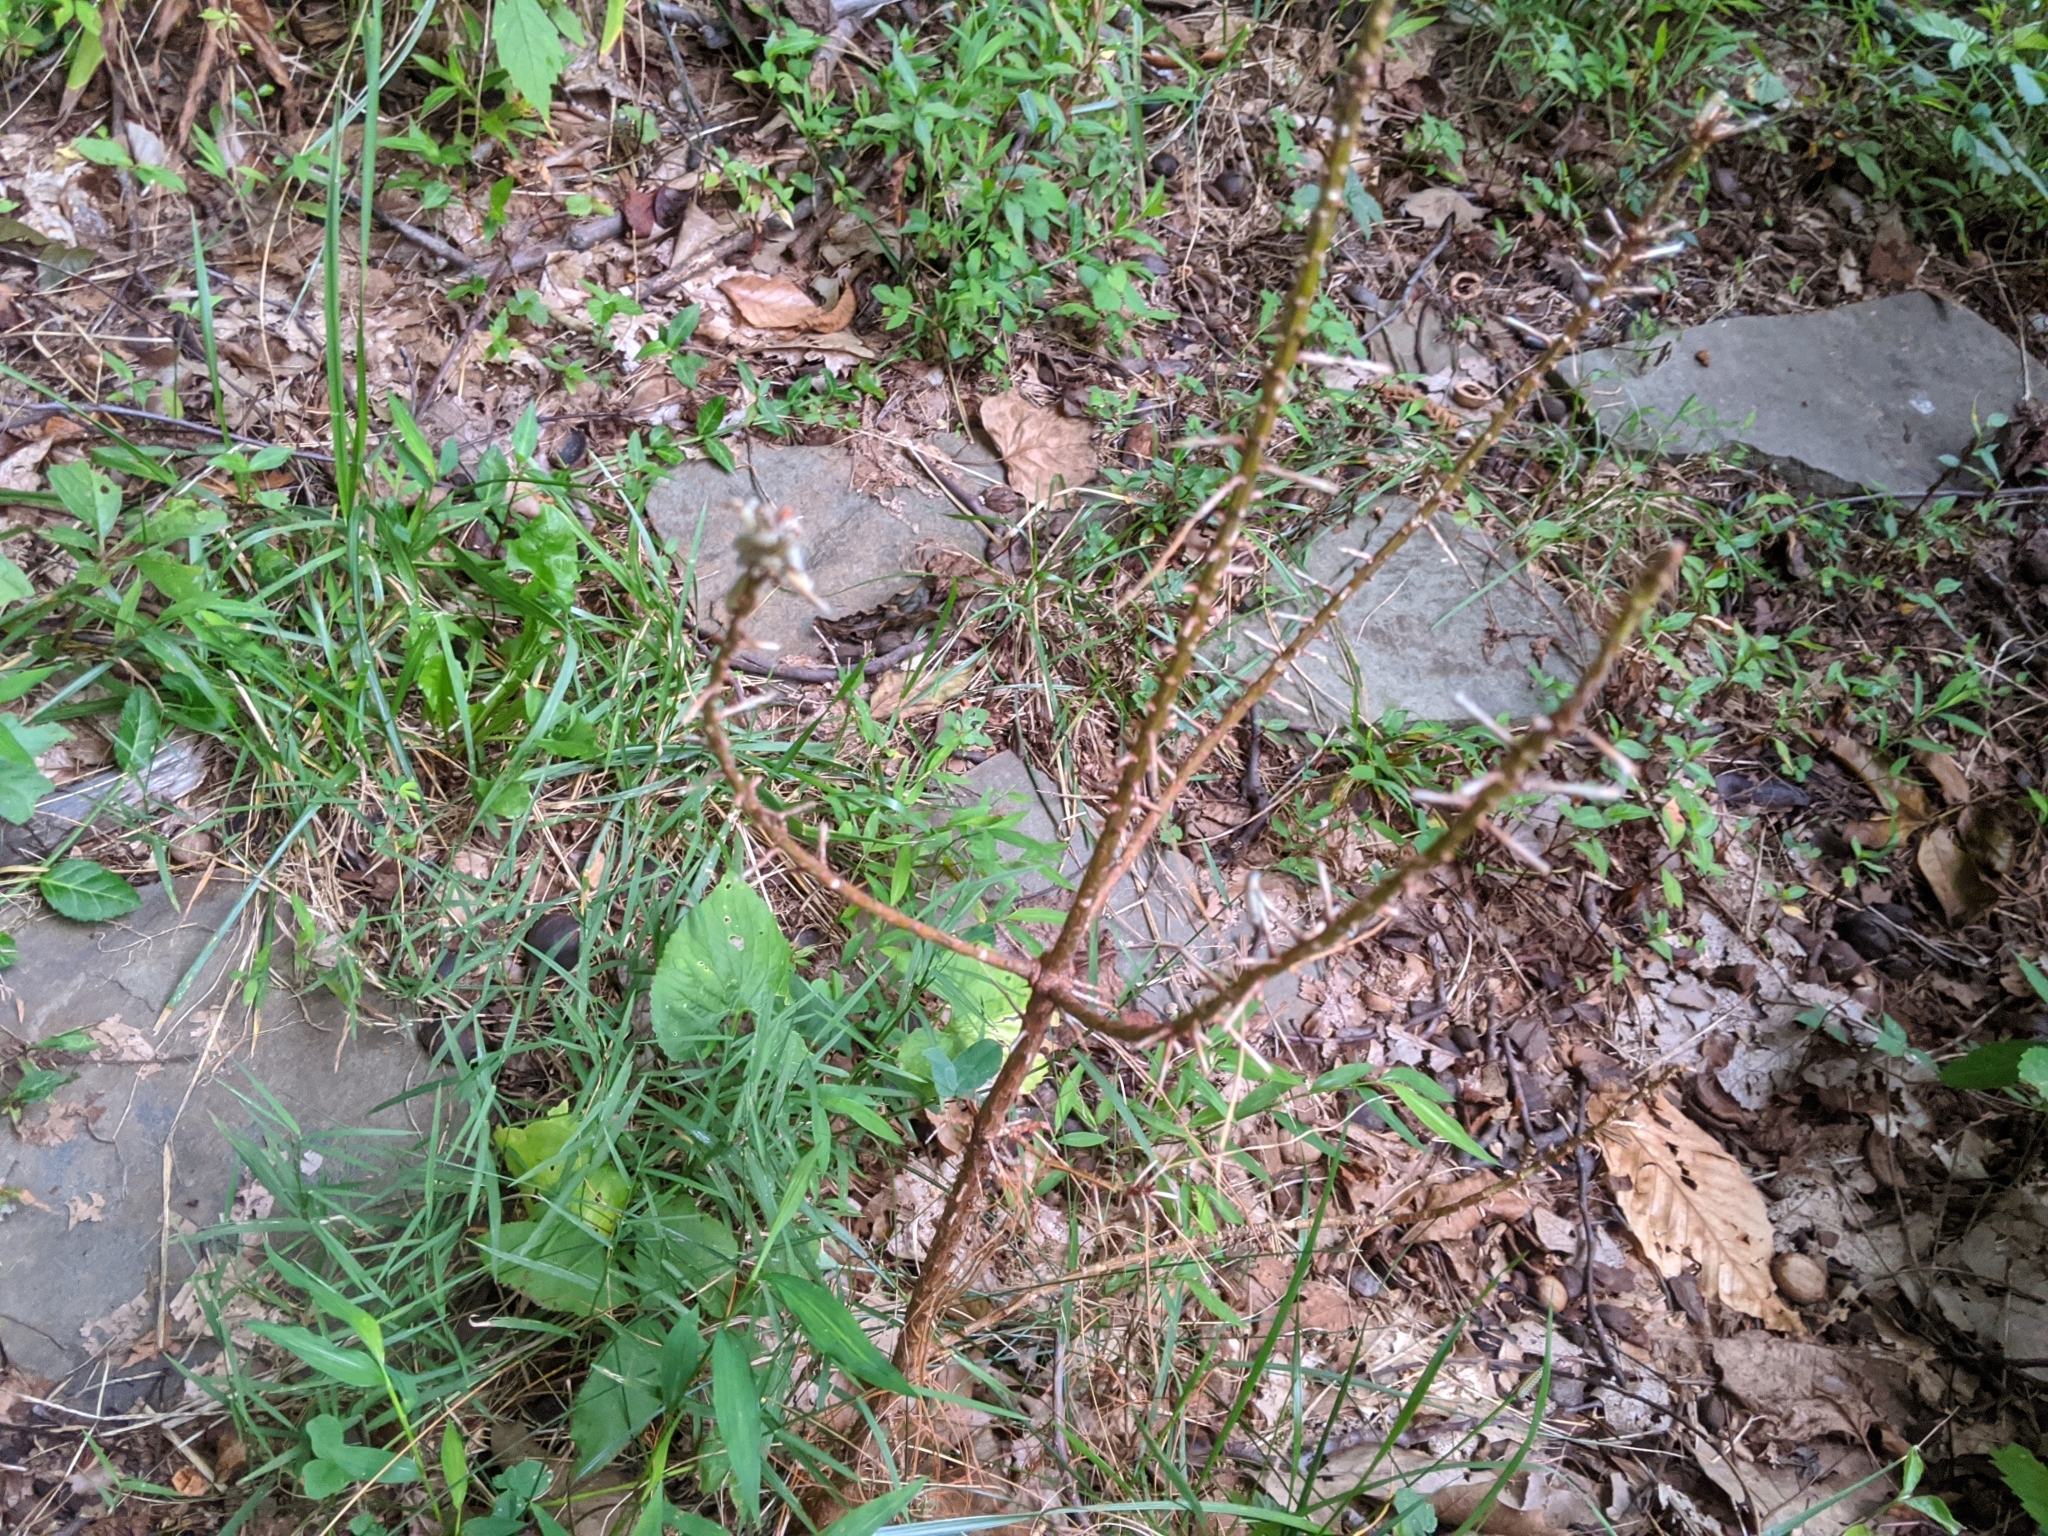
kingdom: Animalia
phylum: Arthropoda
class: Insecta
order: Hymenoptera
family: Diprionidae
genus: Neodiprion
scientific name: Neodiprion lecontei
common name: Redheaded pine sawfly
